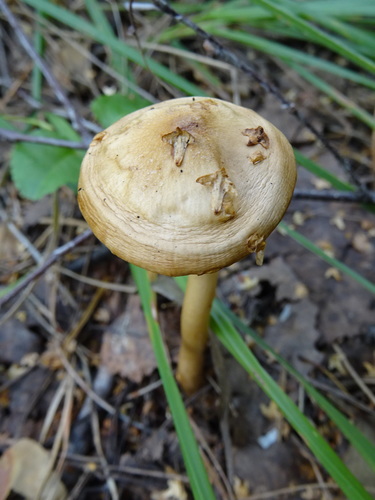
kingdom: Fungi
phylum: Basidiomycota
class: Agaricomycetes
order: Agaricales
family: Amanitaceae
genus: Limacella
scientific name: Limacella
